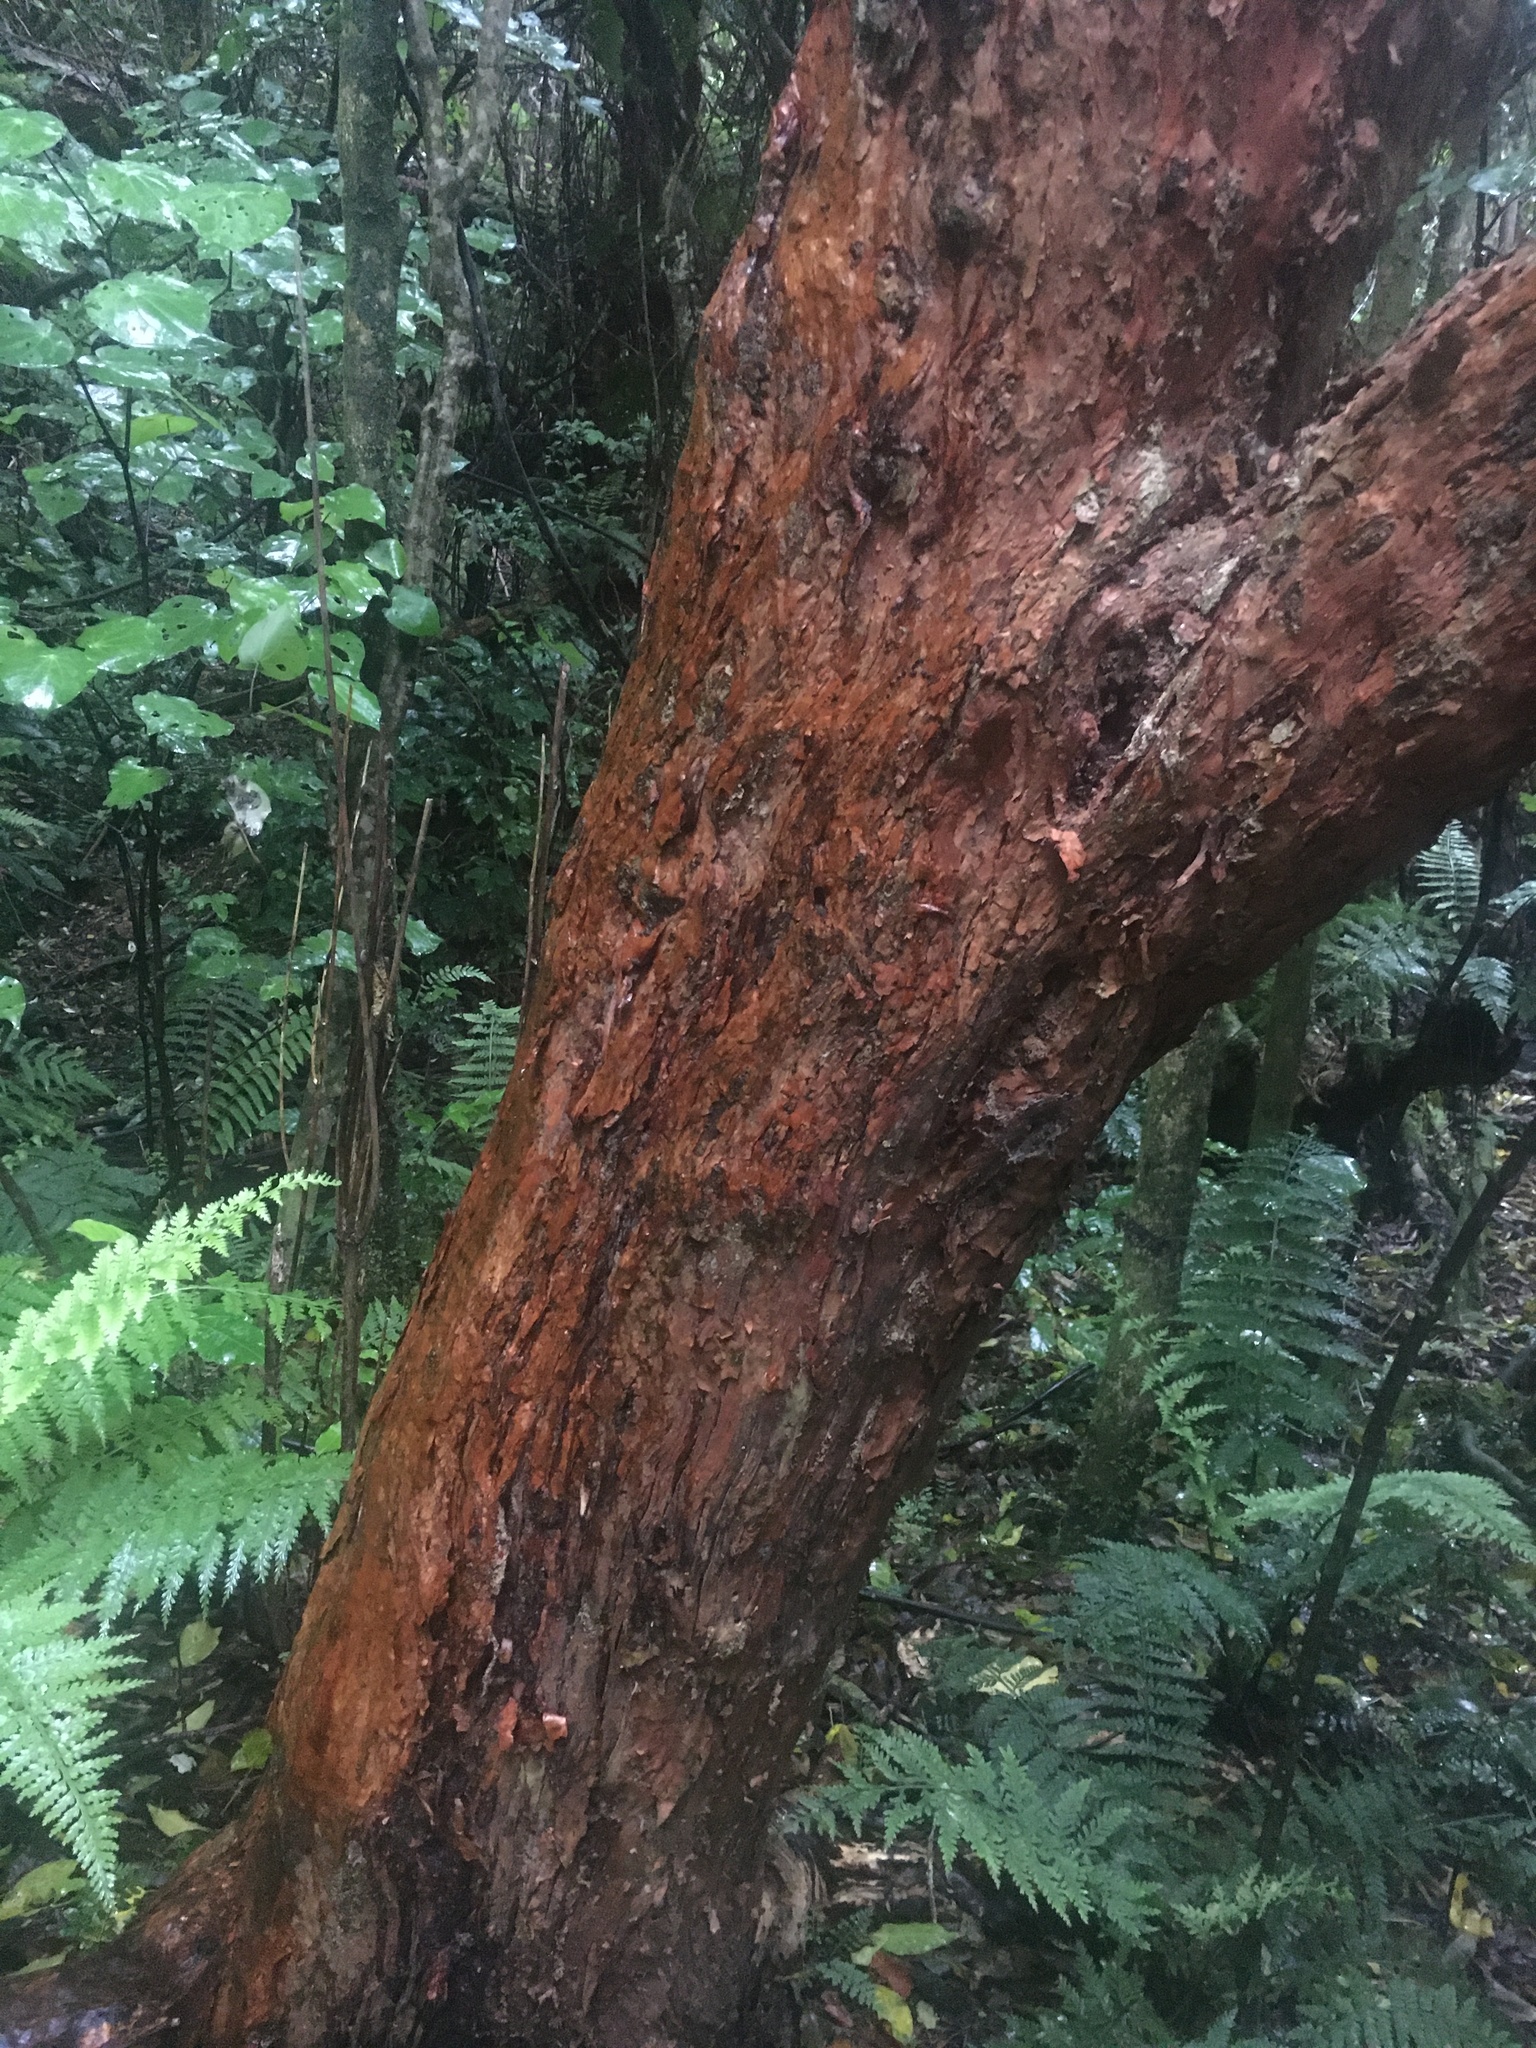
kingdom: Plantae
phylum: Tracheophyta
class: Magnoliopsida
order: Myrtales
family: Onagraceae
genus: Fuchsia
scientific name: Fuchsia excorticata
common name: Tree fuchsia
